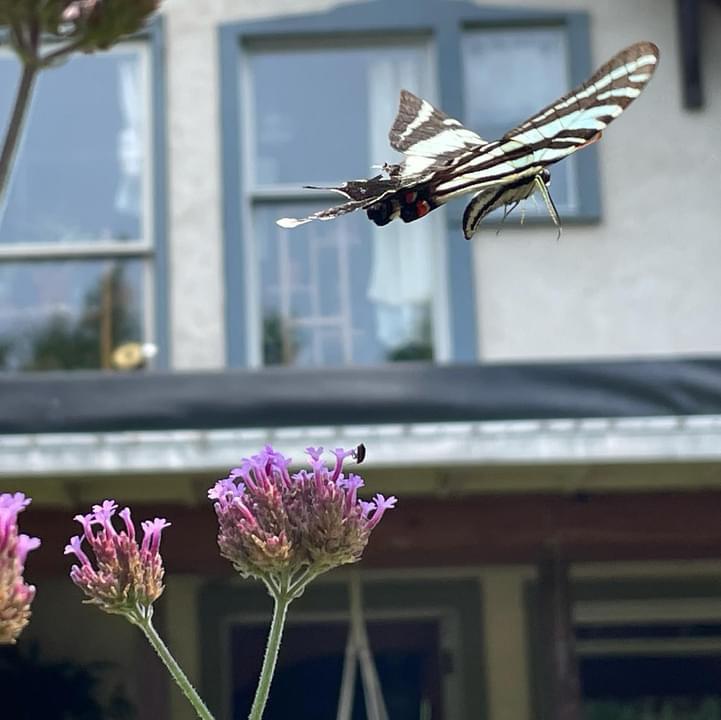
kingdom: Animalia
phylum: Arthropoda
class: Insecta
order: Lepidoptera
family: Papilionidae
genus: Protographium
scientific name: Protographium marcellus
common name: Zebra swallowtail
